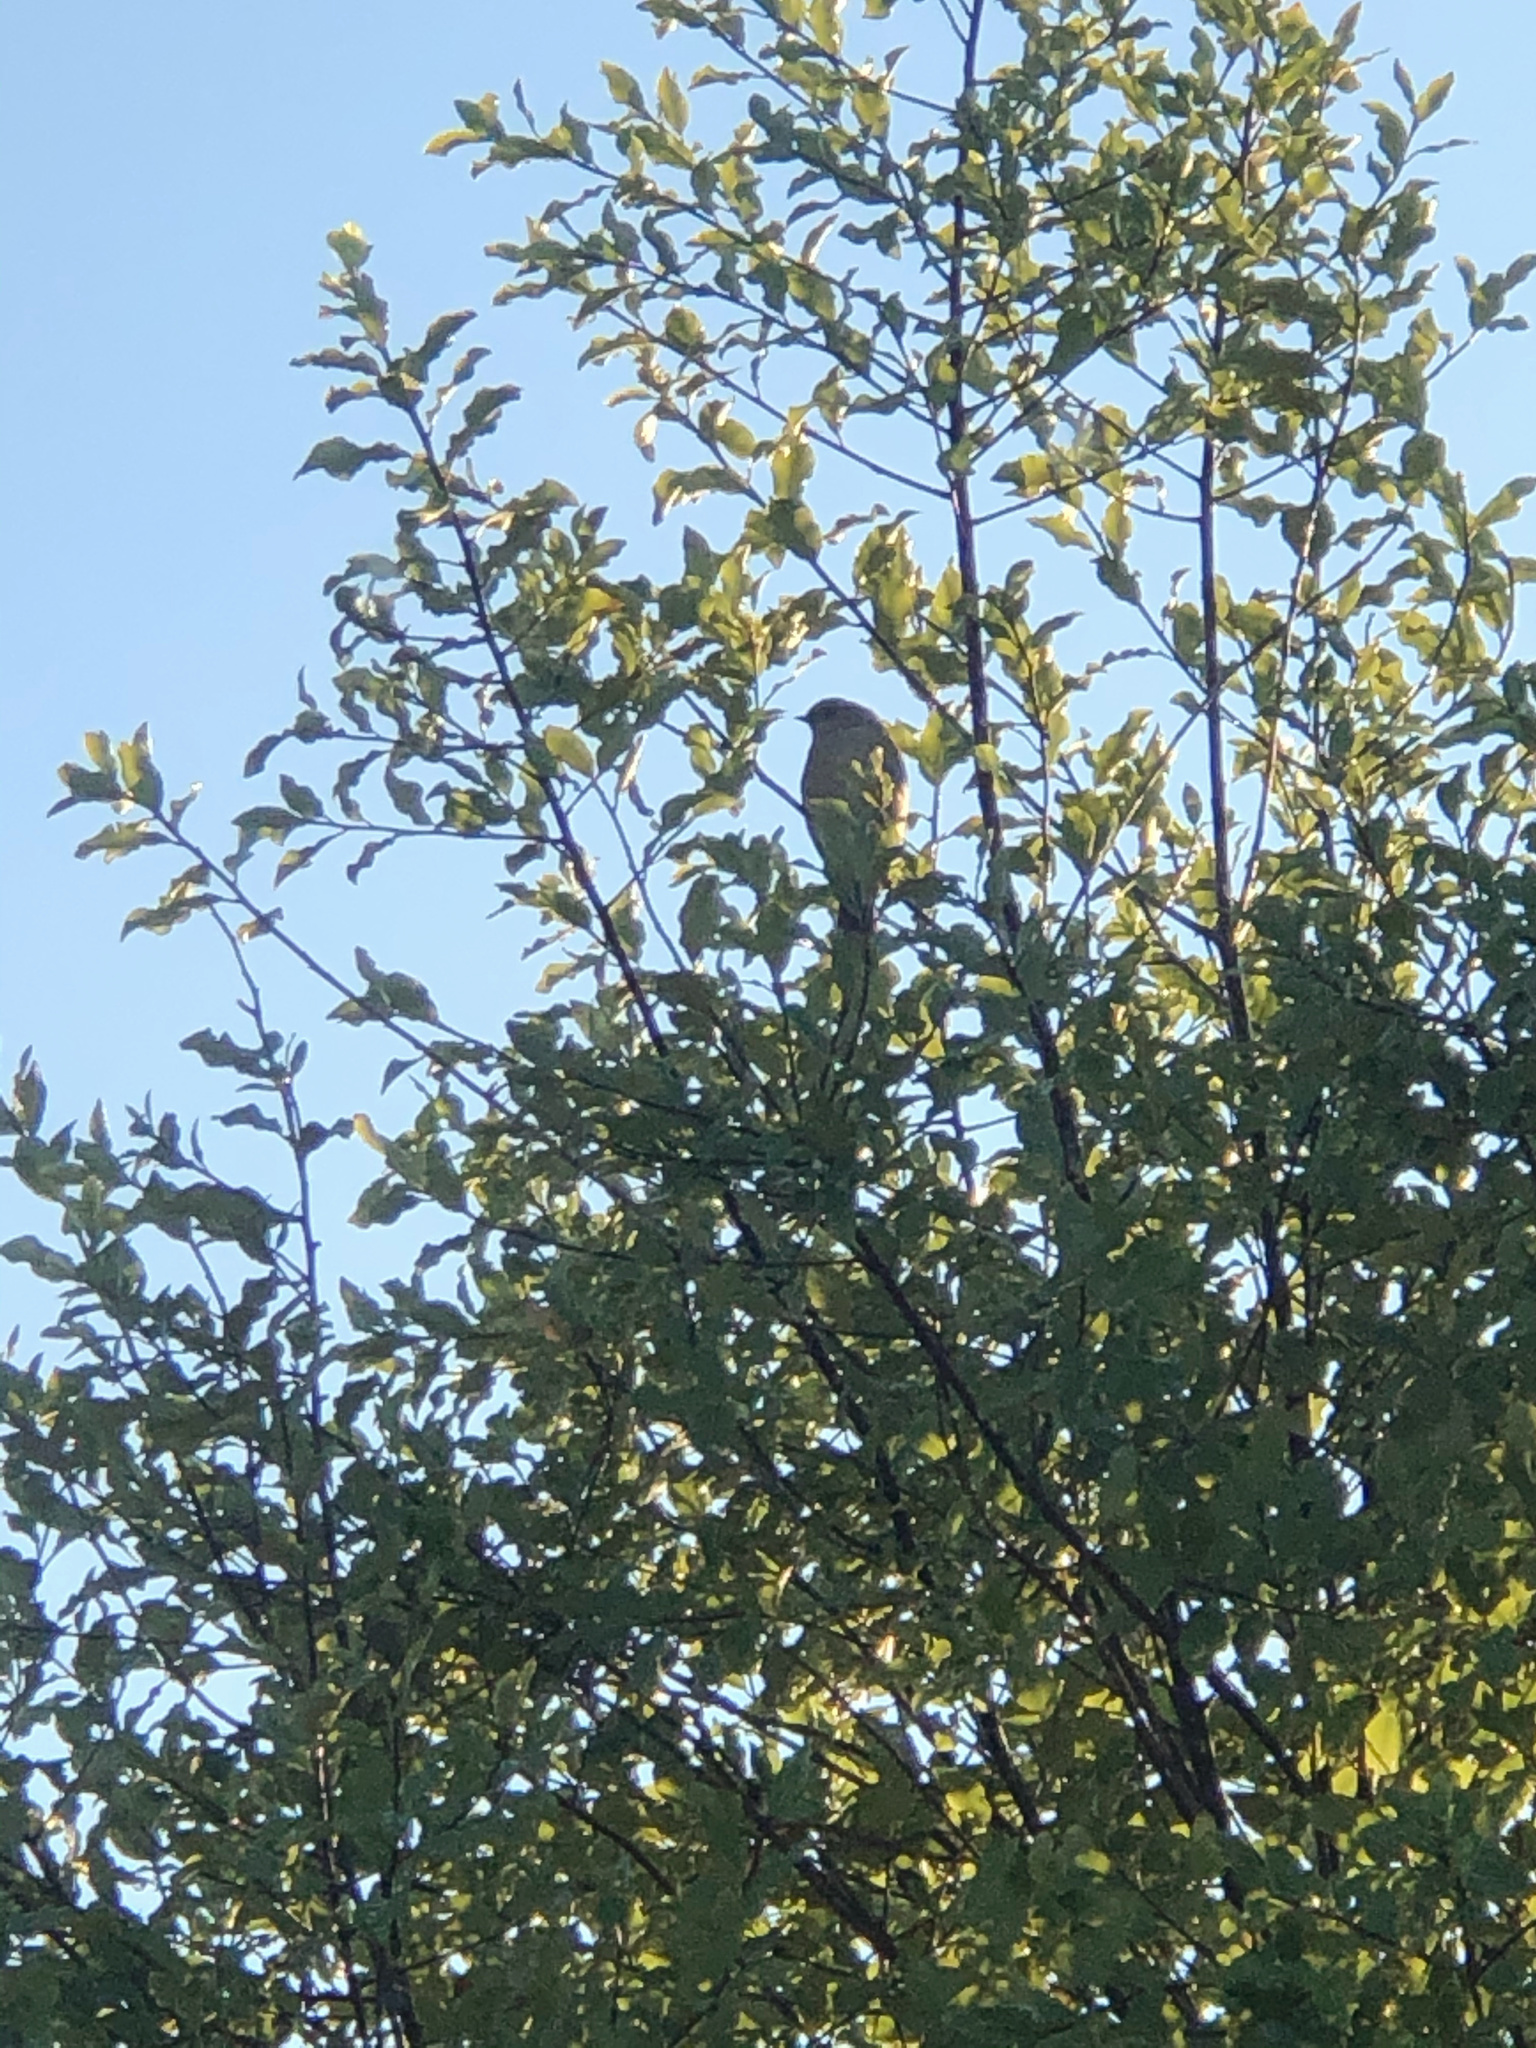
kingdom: Animalia
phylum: Chordata
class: Aves
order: Passeriformes
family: Acanthizidae
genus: Gerygone
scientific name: Gerygone igata
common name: Grey gerygone
